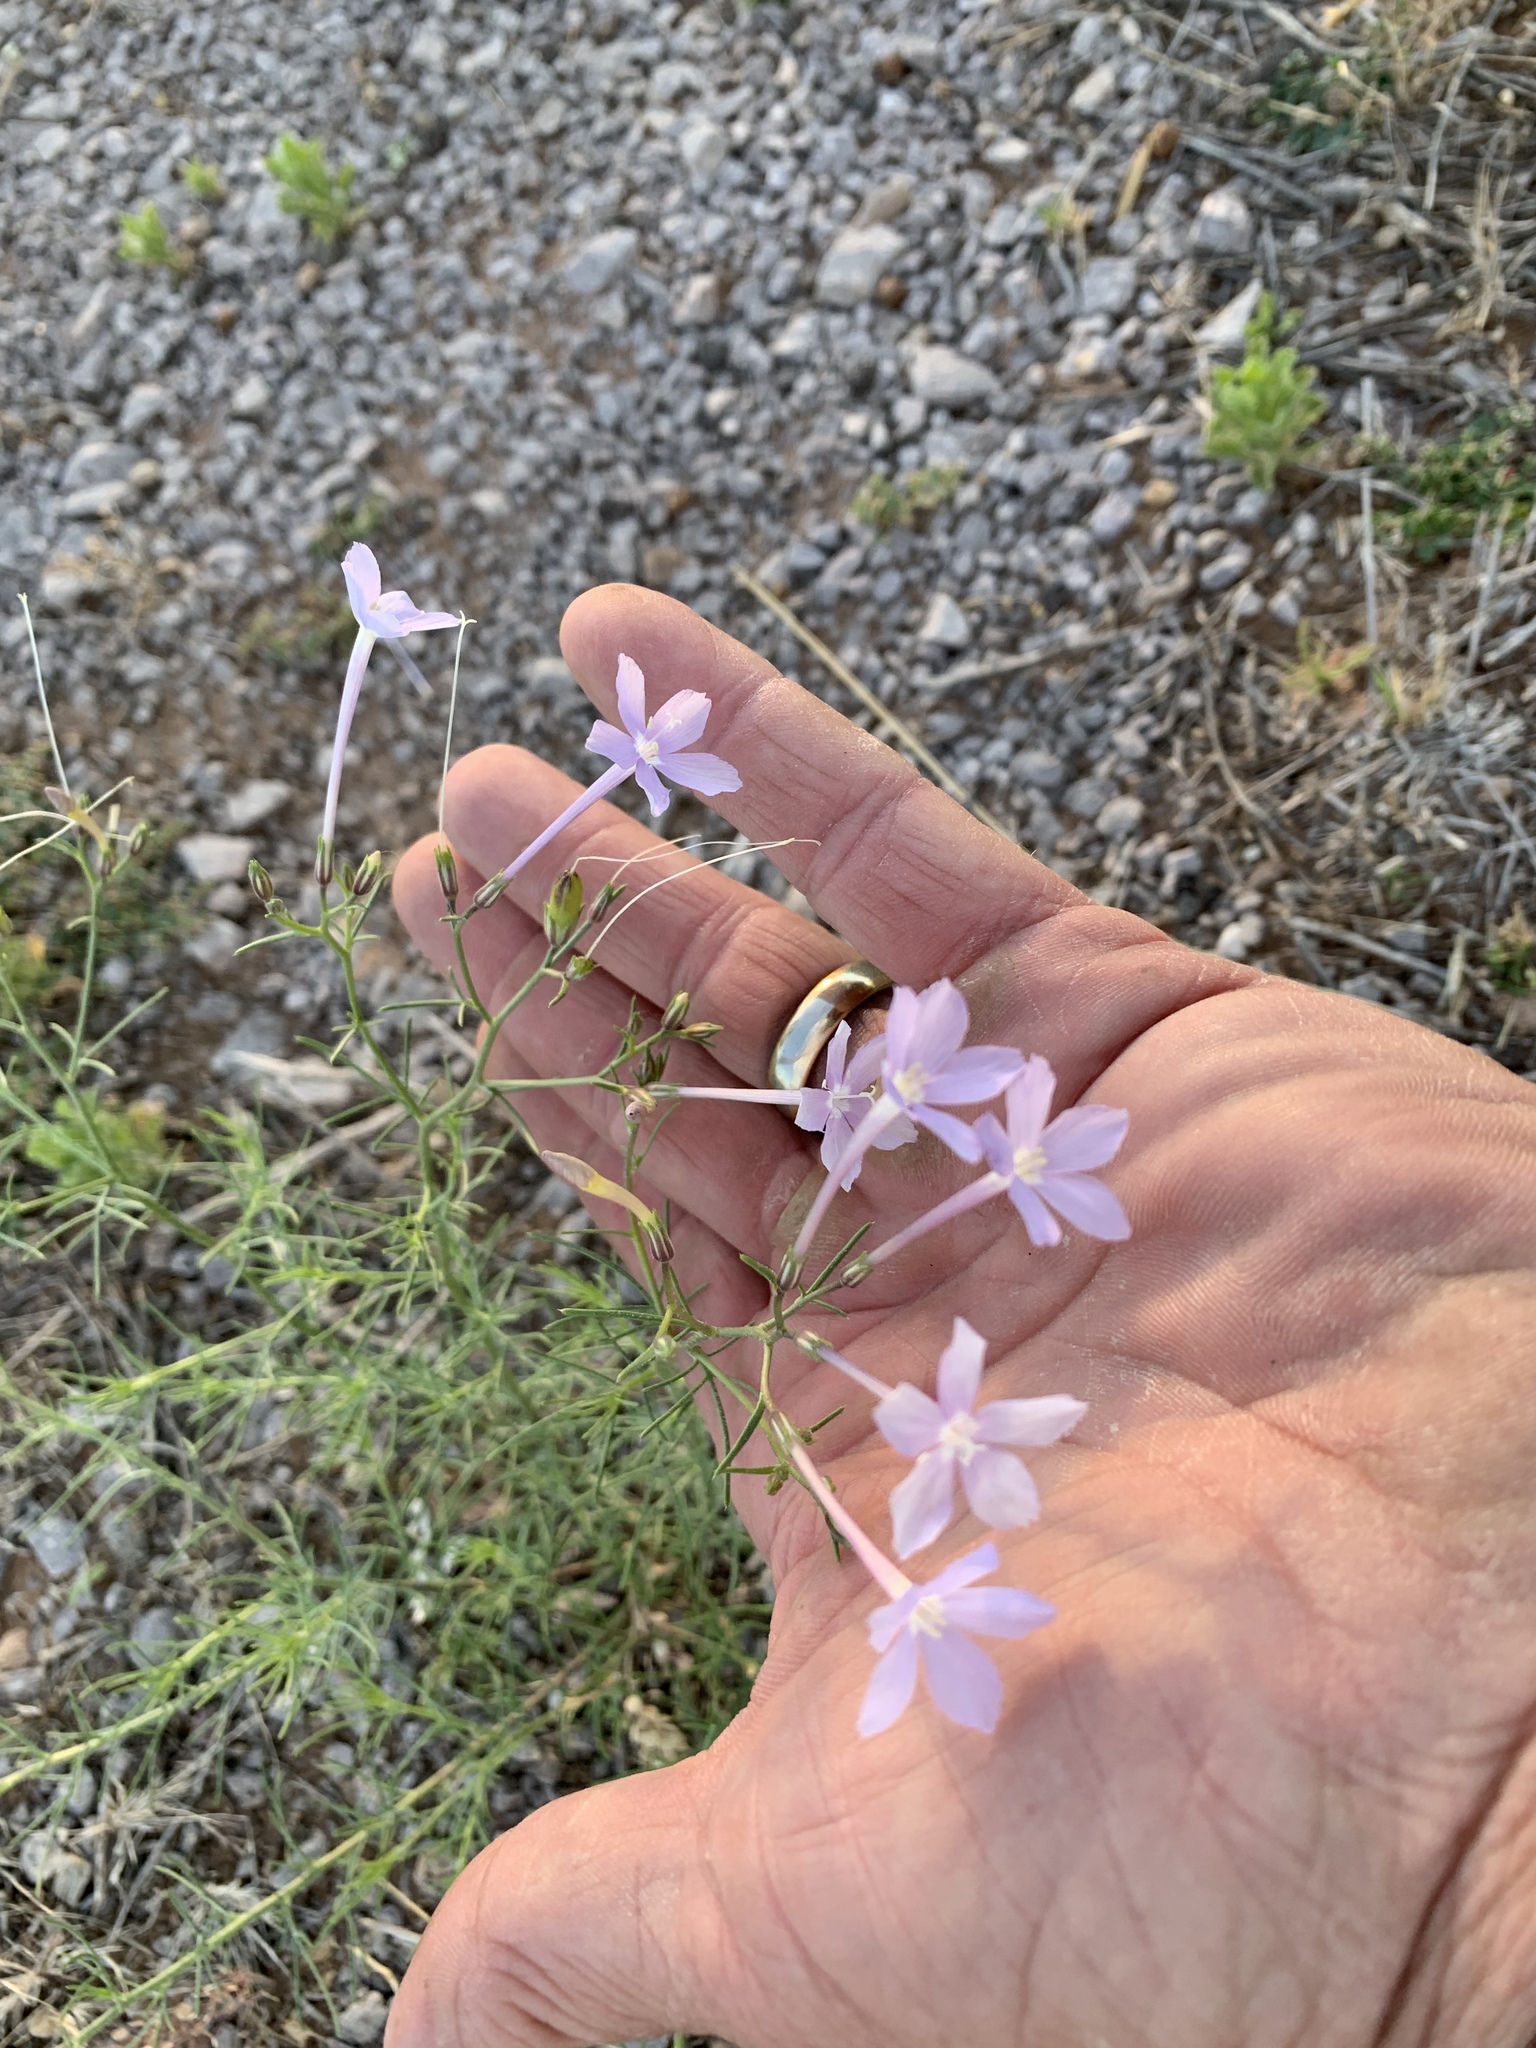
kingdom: Plantae
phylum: Tracheophyta
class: Magnoliopsida
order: Ericales
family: Polemoniaceae
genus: Ipomopsis
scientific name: Ipomopsis longiflora
